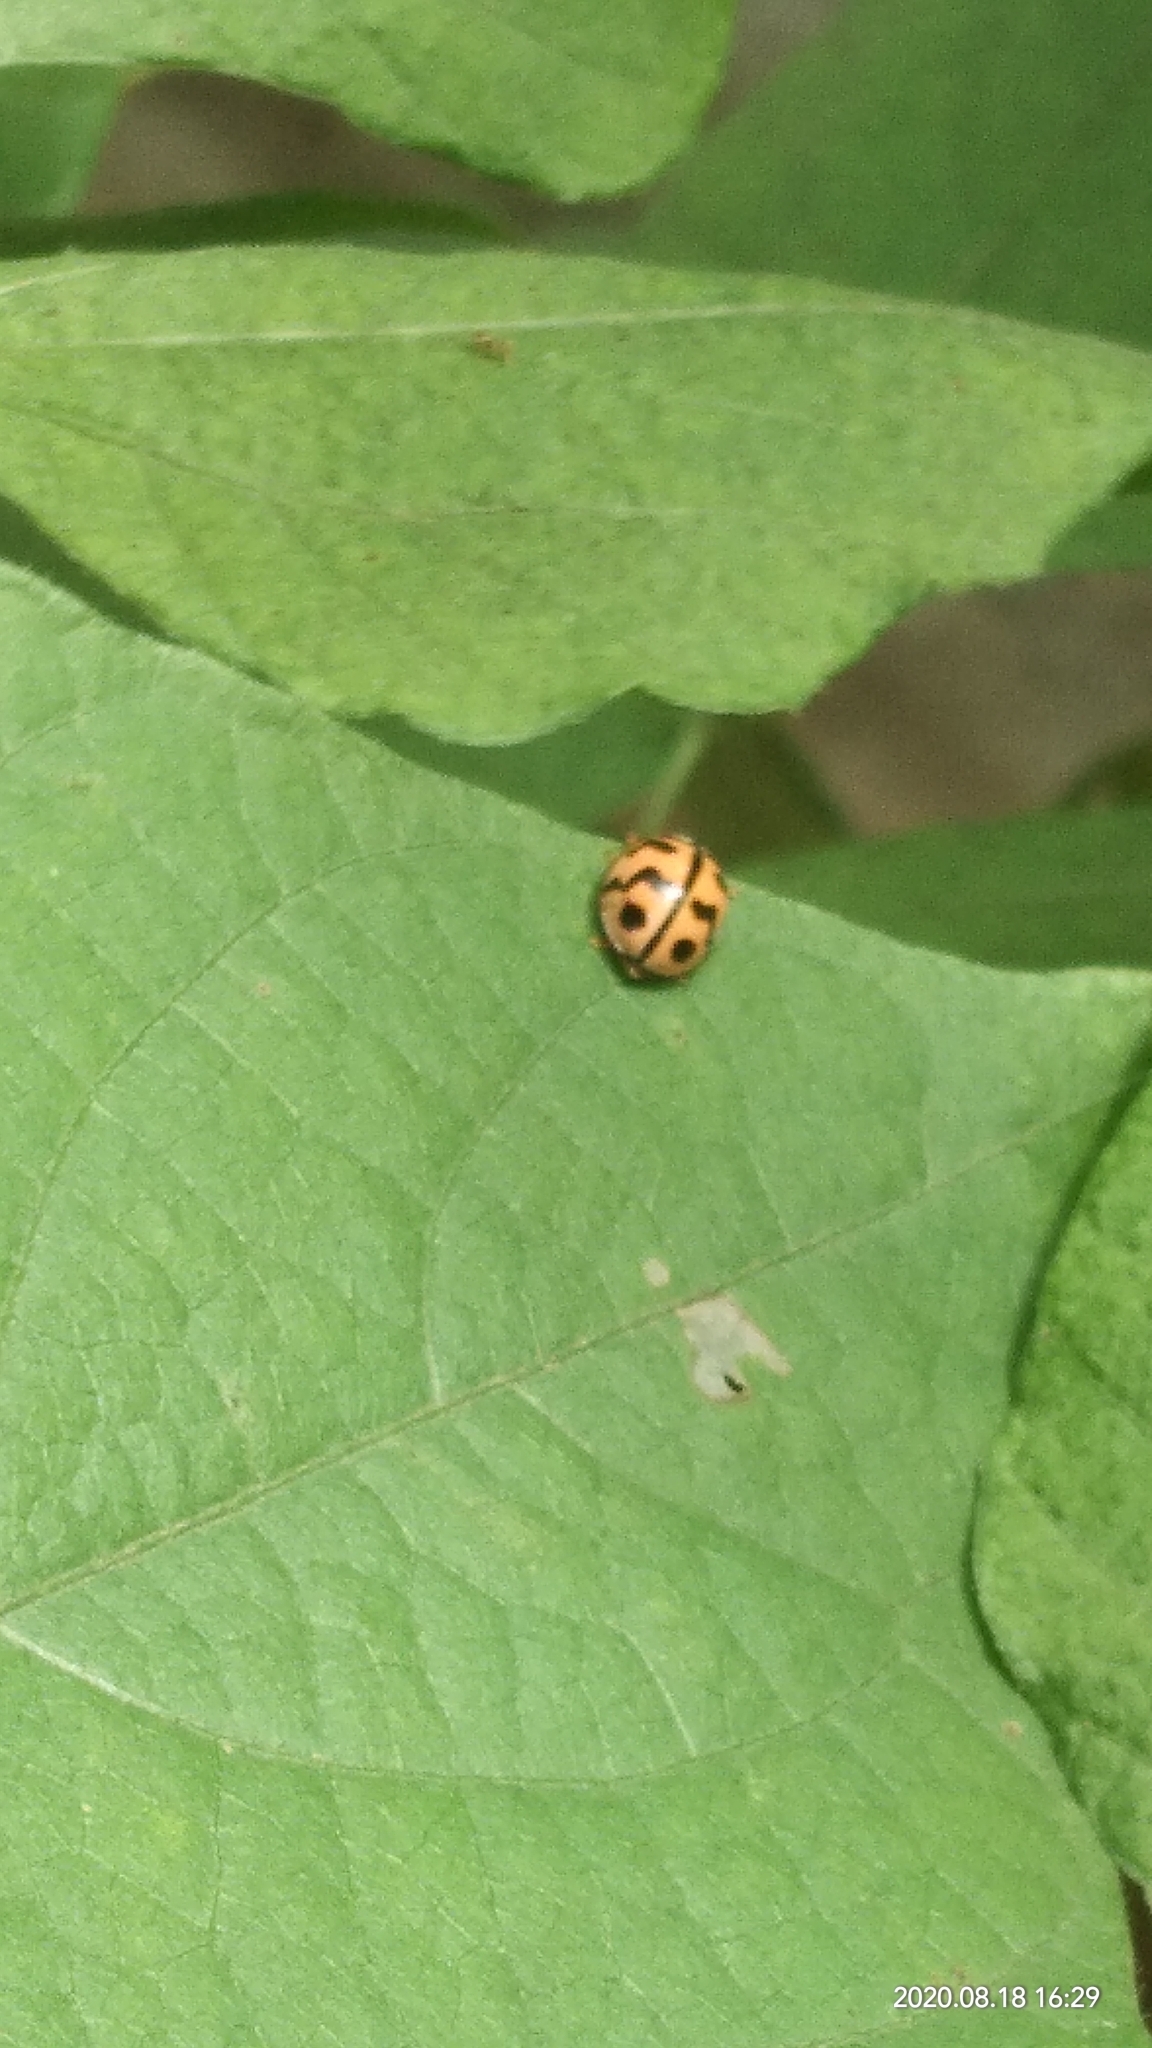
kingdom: Animalia
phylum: Arthropoda
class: Insecta
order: Coleoptera
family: Coccinellidae
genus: Cheilomenes
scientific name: Cheilomenes sexmaculata
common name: Ladybird beetle
